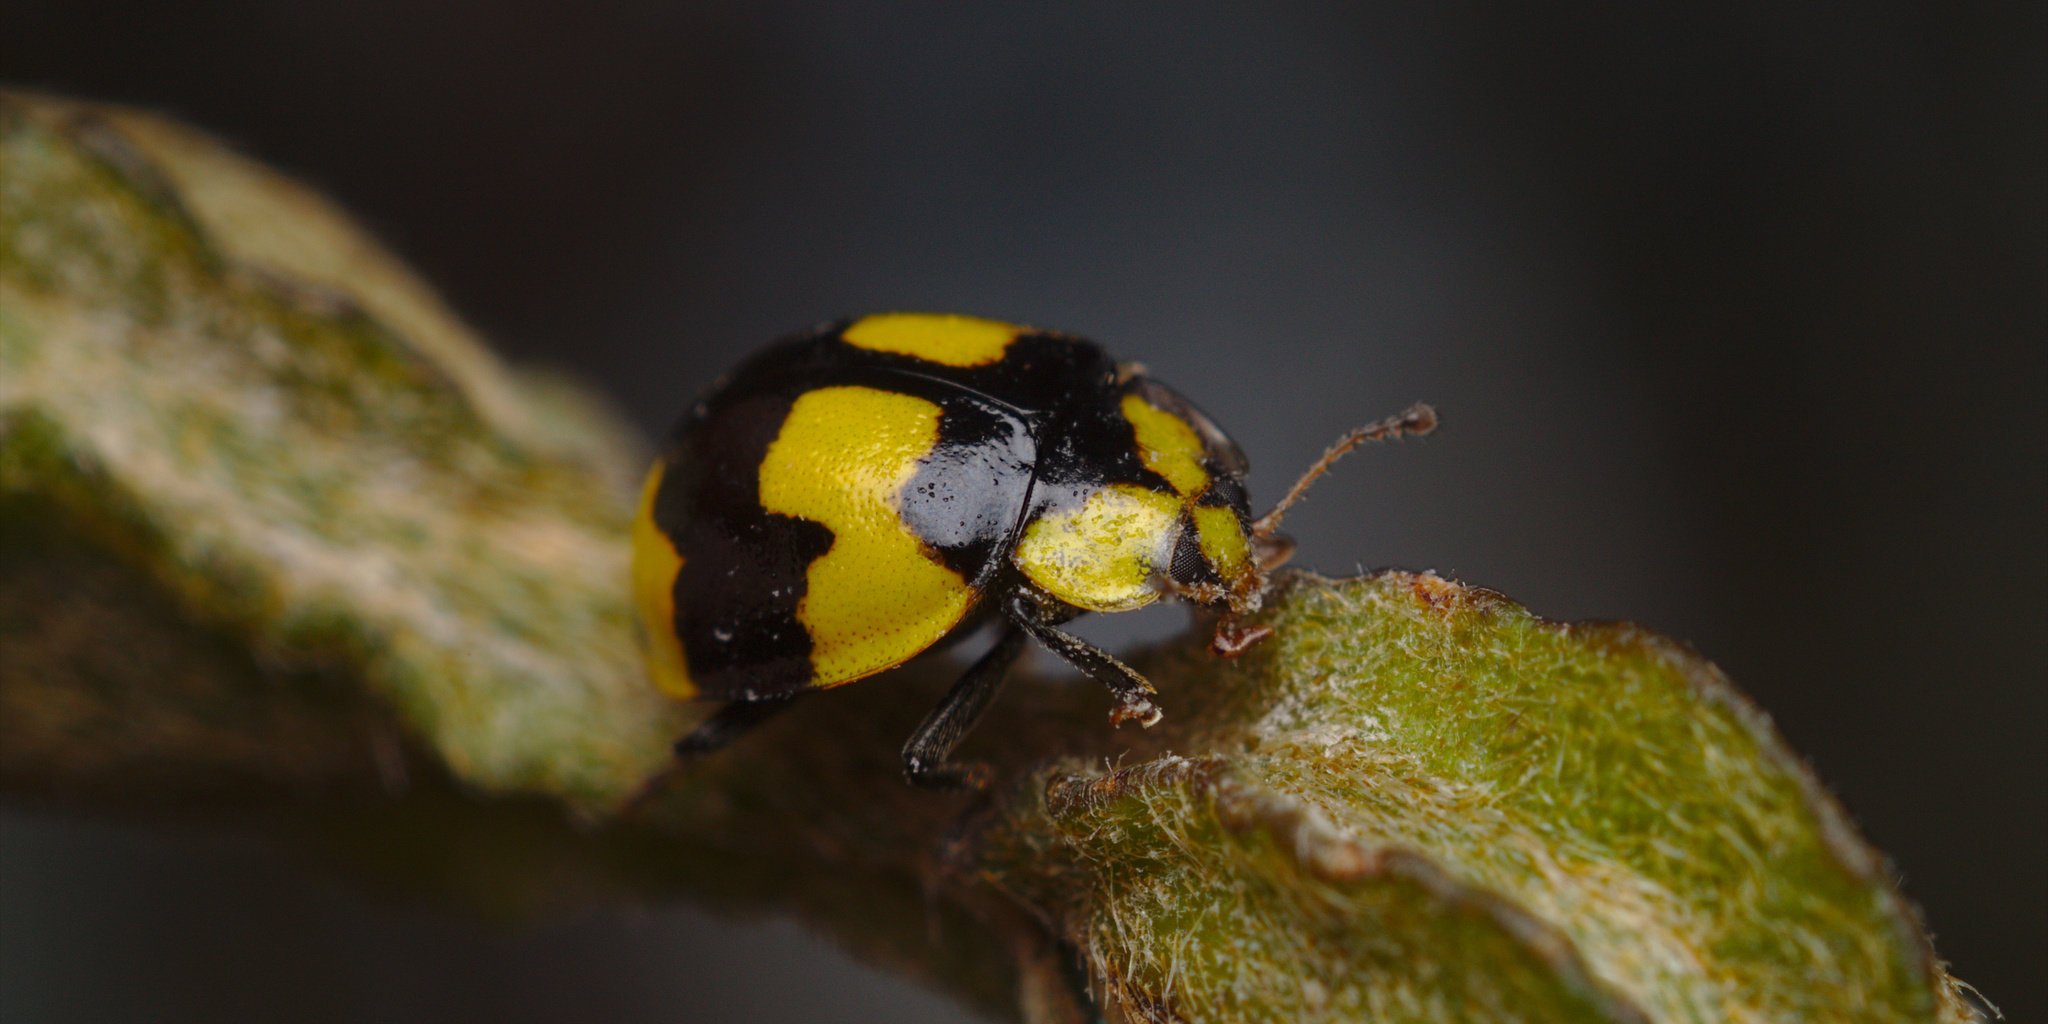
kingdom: Animalia
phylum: Arthropoda
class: Insecta
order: Coleoptera
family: Coccinellidae
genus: Illeis
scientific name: Illeis galbula
